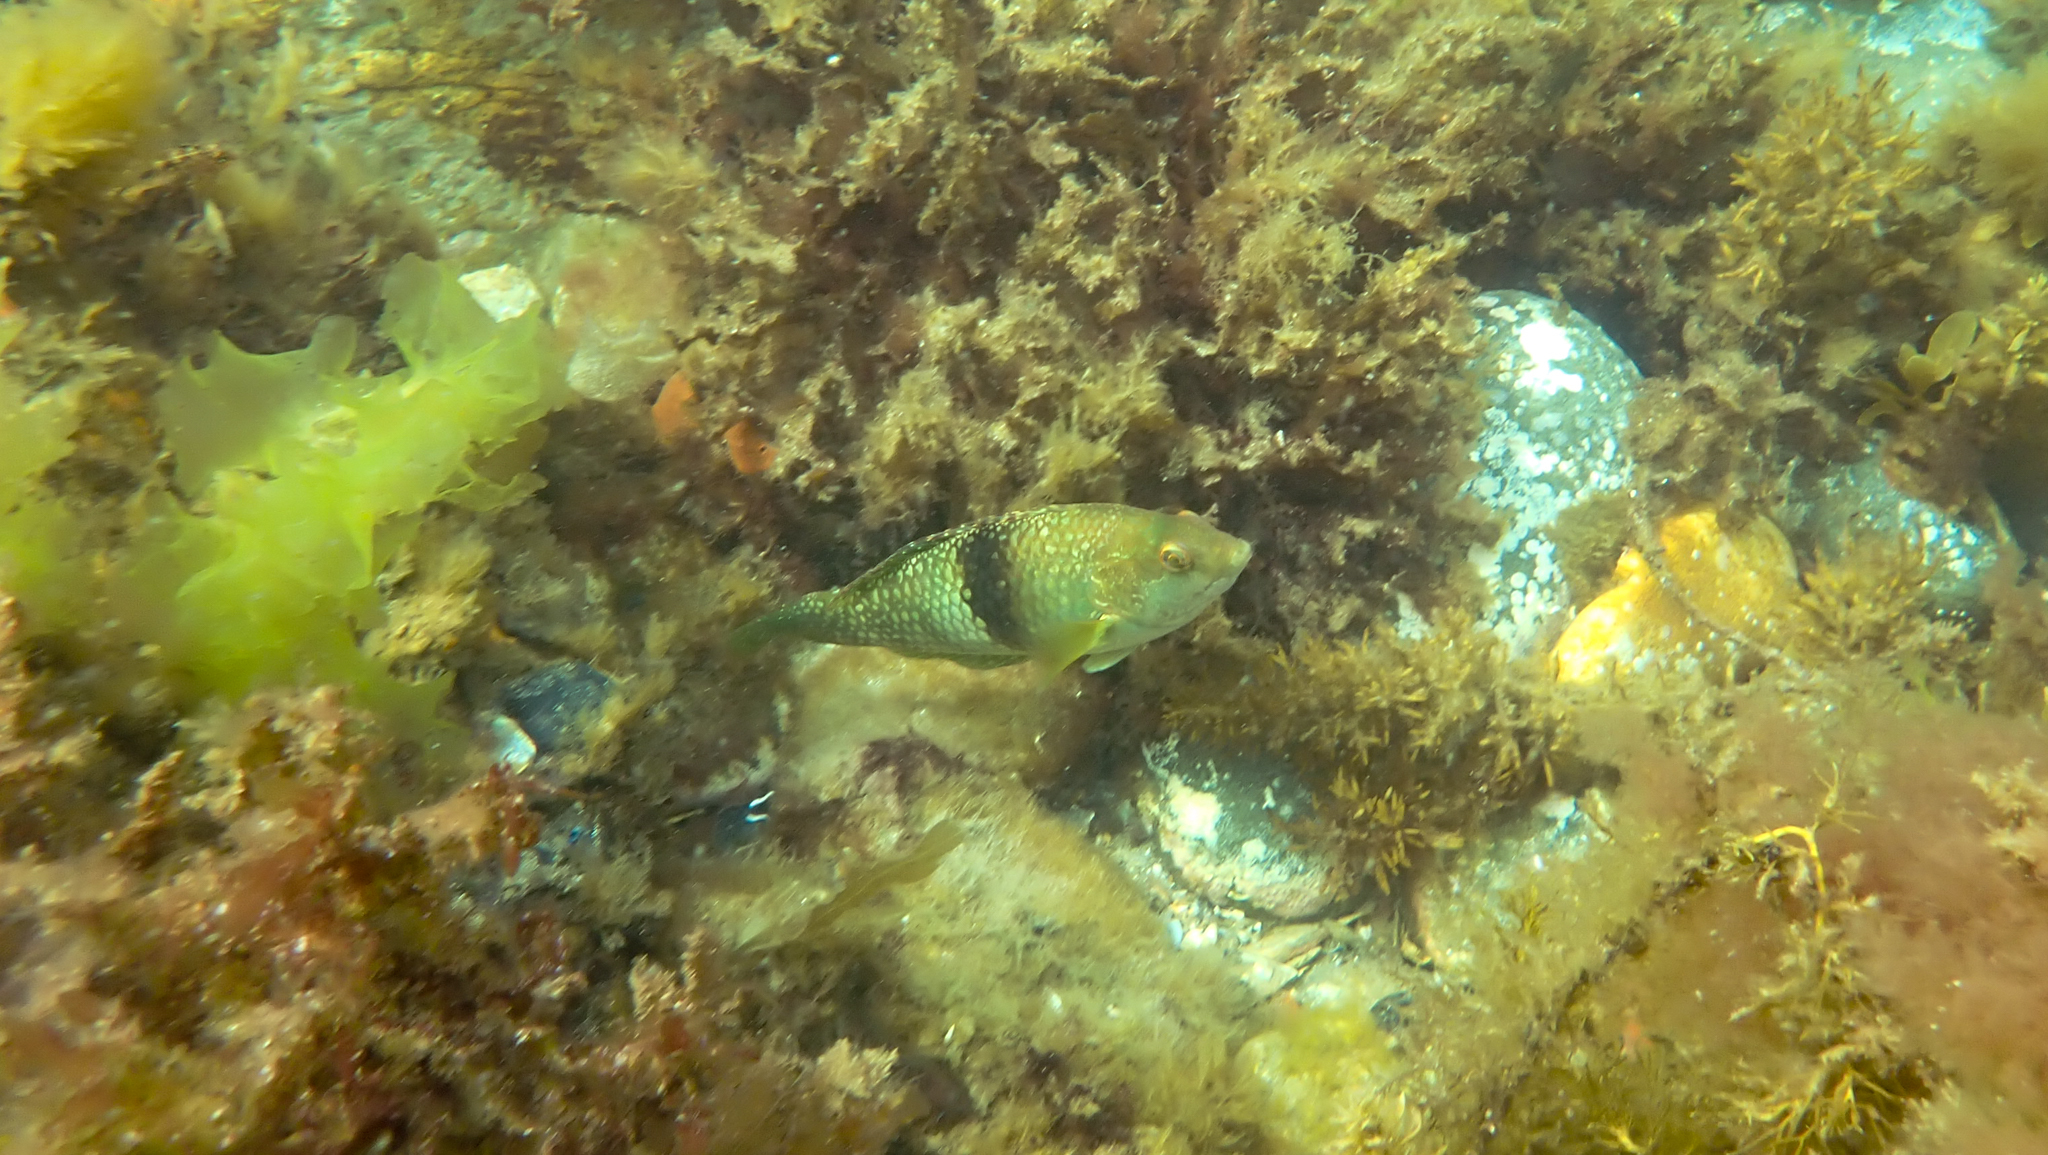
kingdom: Animalia
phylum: Chordata
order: Perciformes
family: Labridae
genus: Notolabrus
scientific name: Notolabrus tetricus
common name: Blue-throated parrotfish
